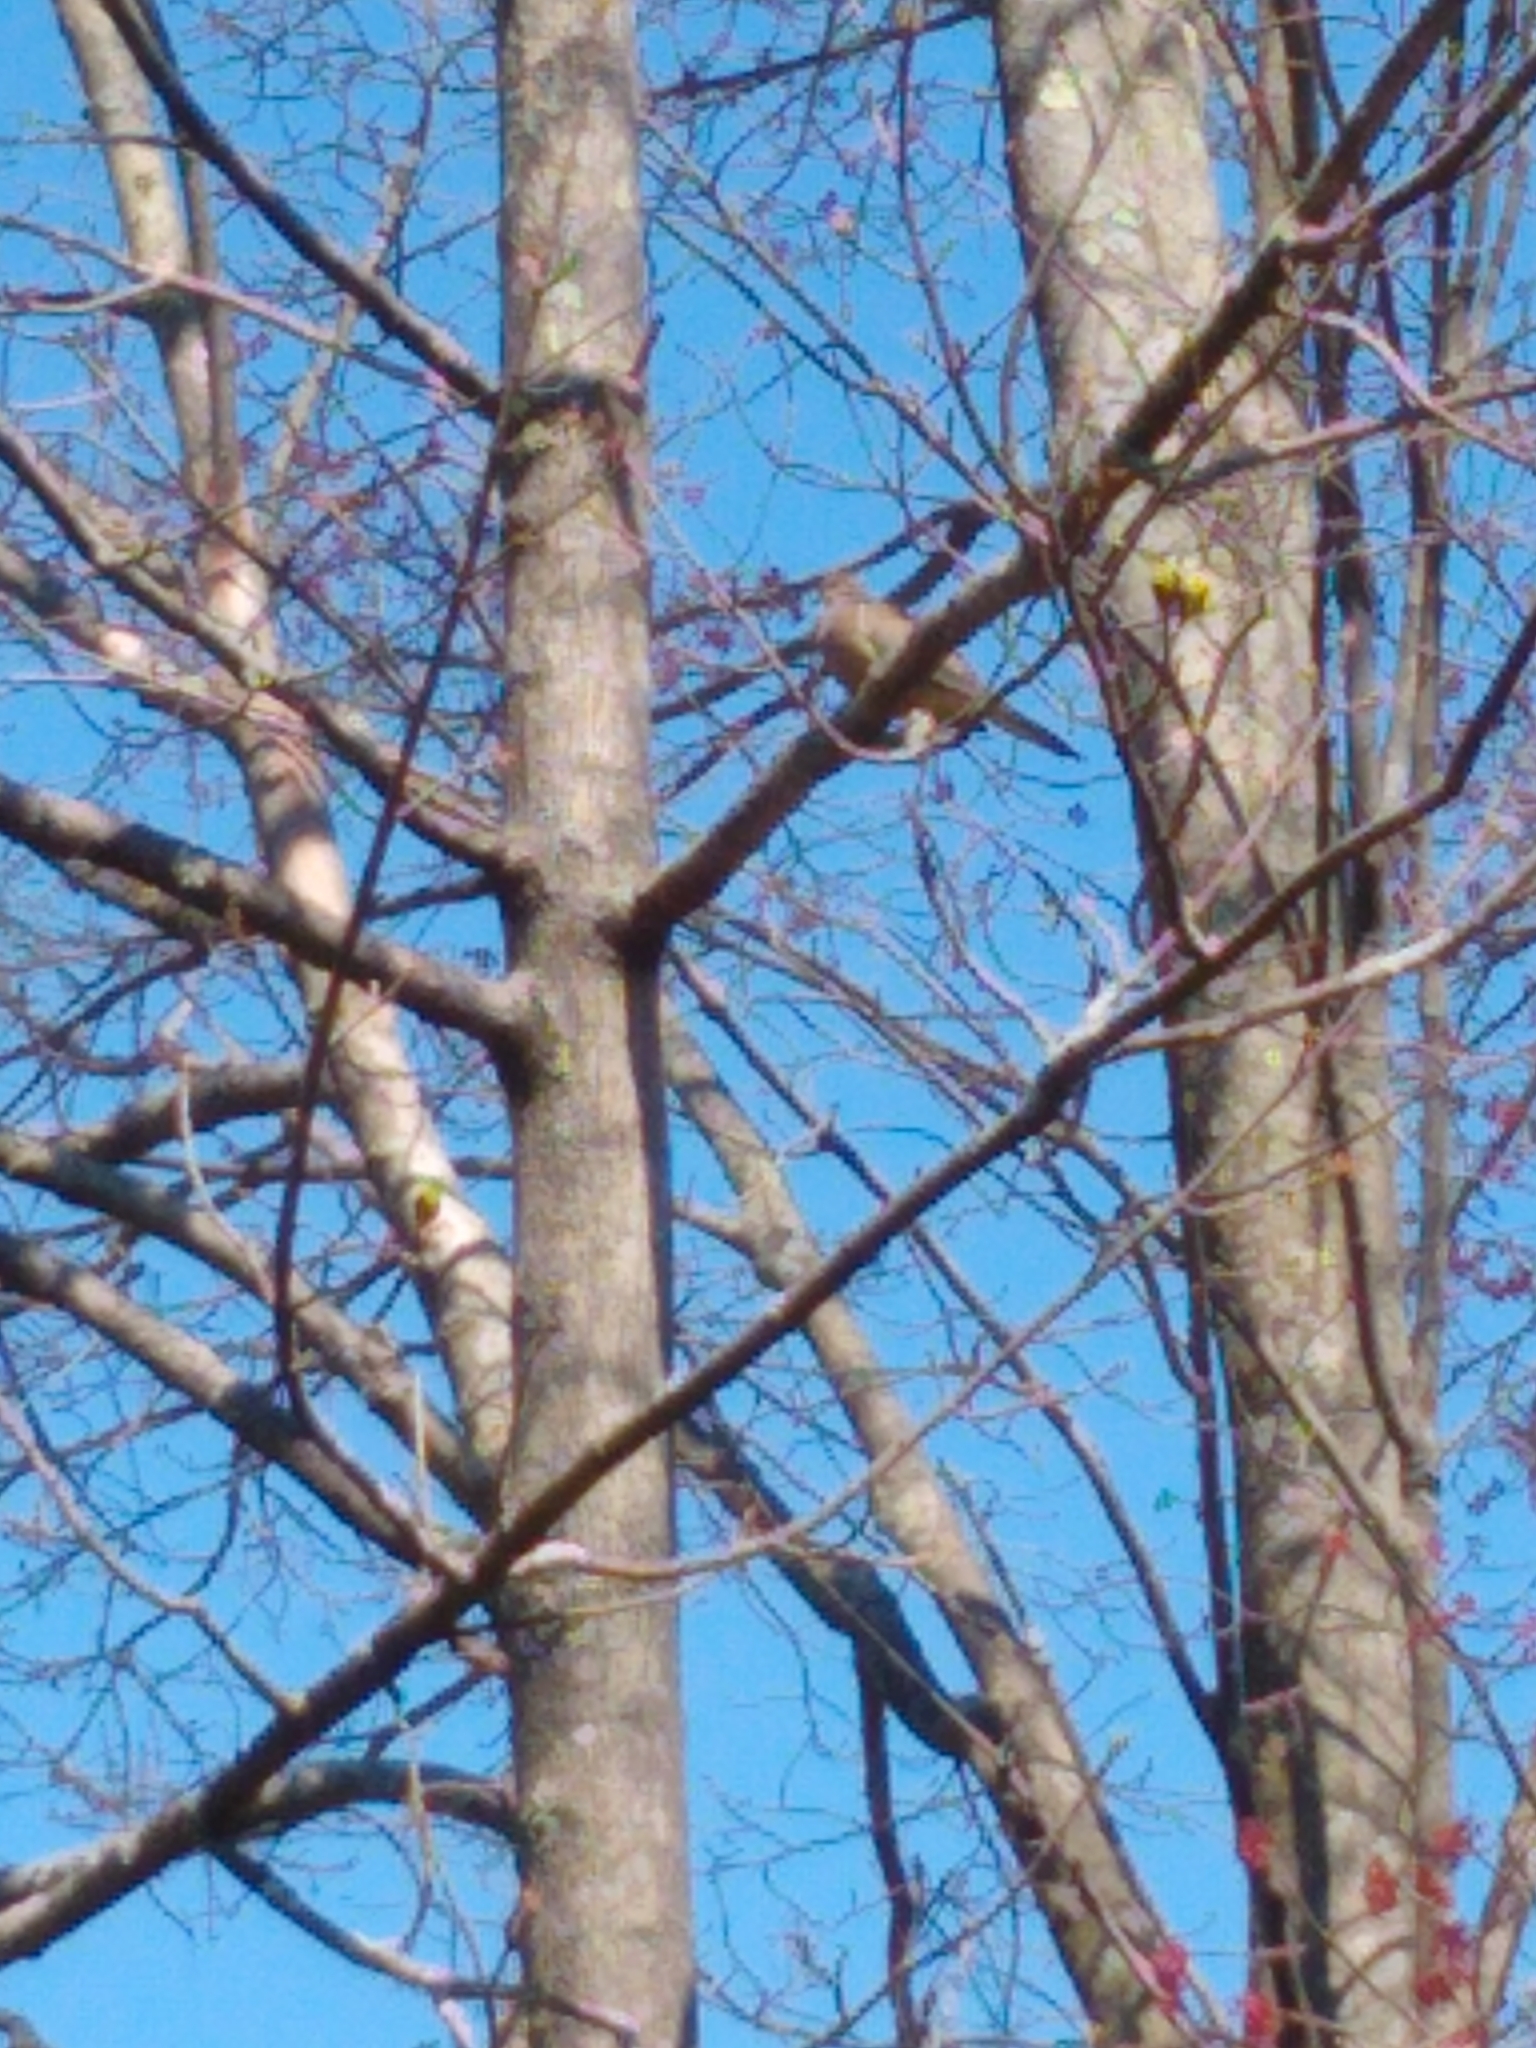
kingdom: Animalia
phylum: Chordata
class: Aves
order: Columbiformes
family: Columbidae
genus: Zenaida
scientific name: Zenaida macroura
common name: Mourning dove
